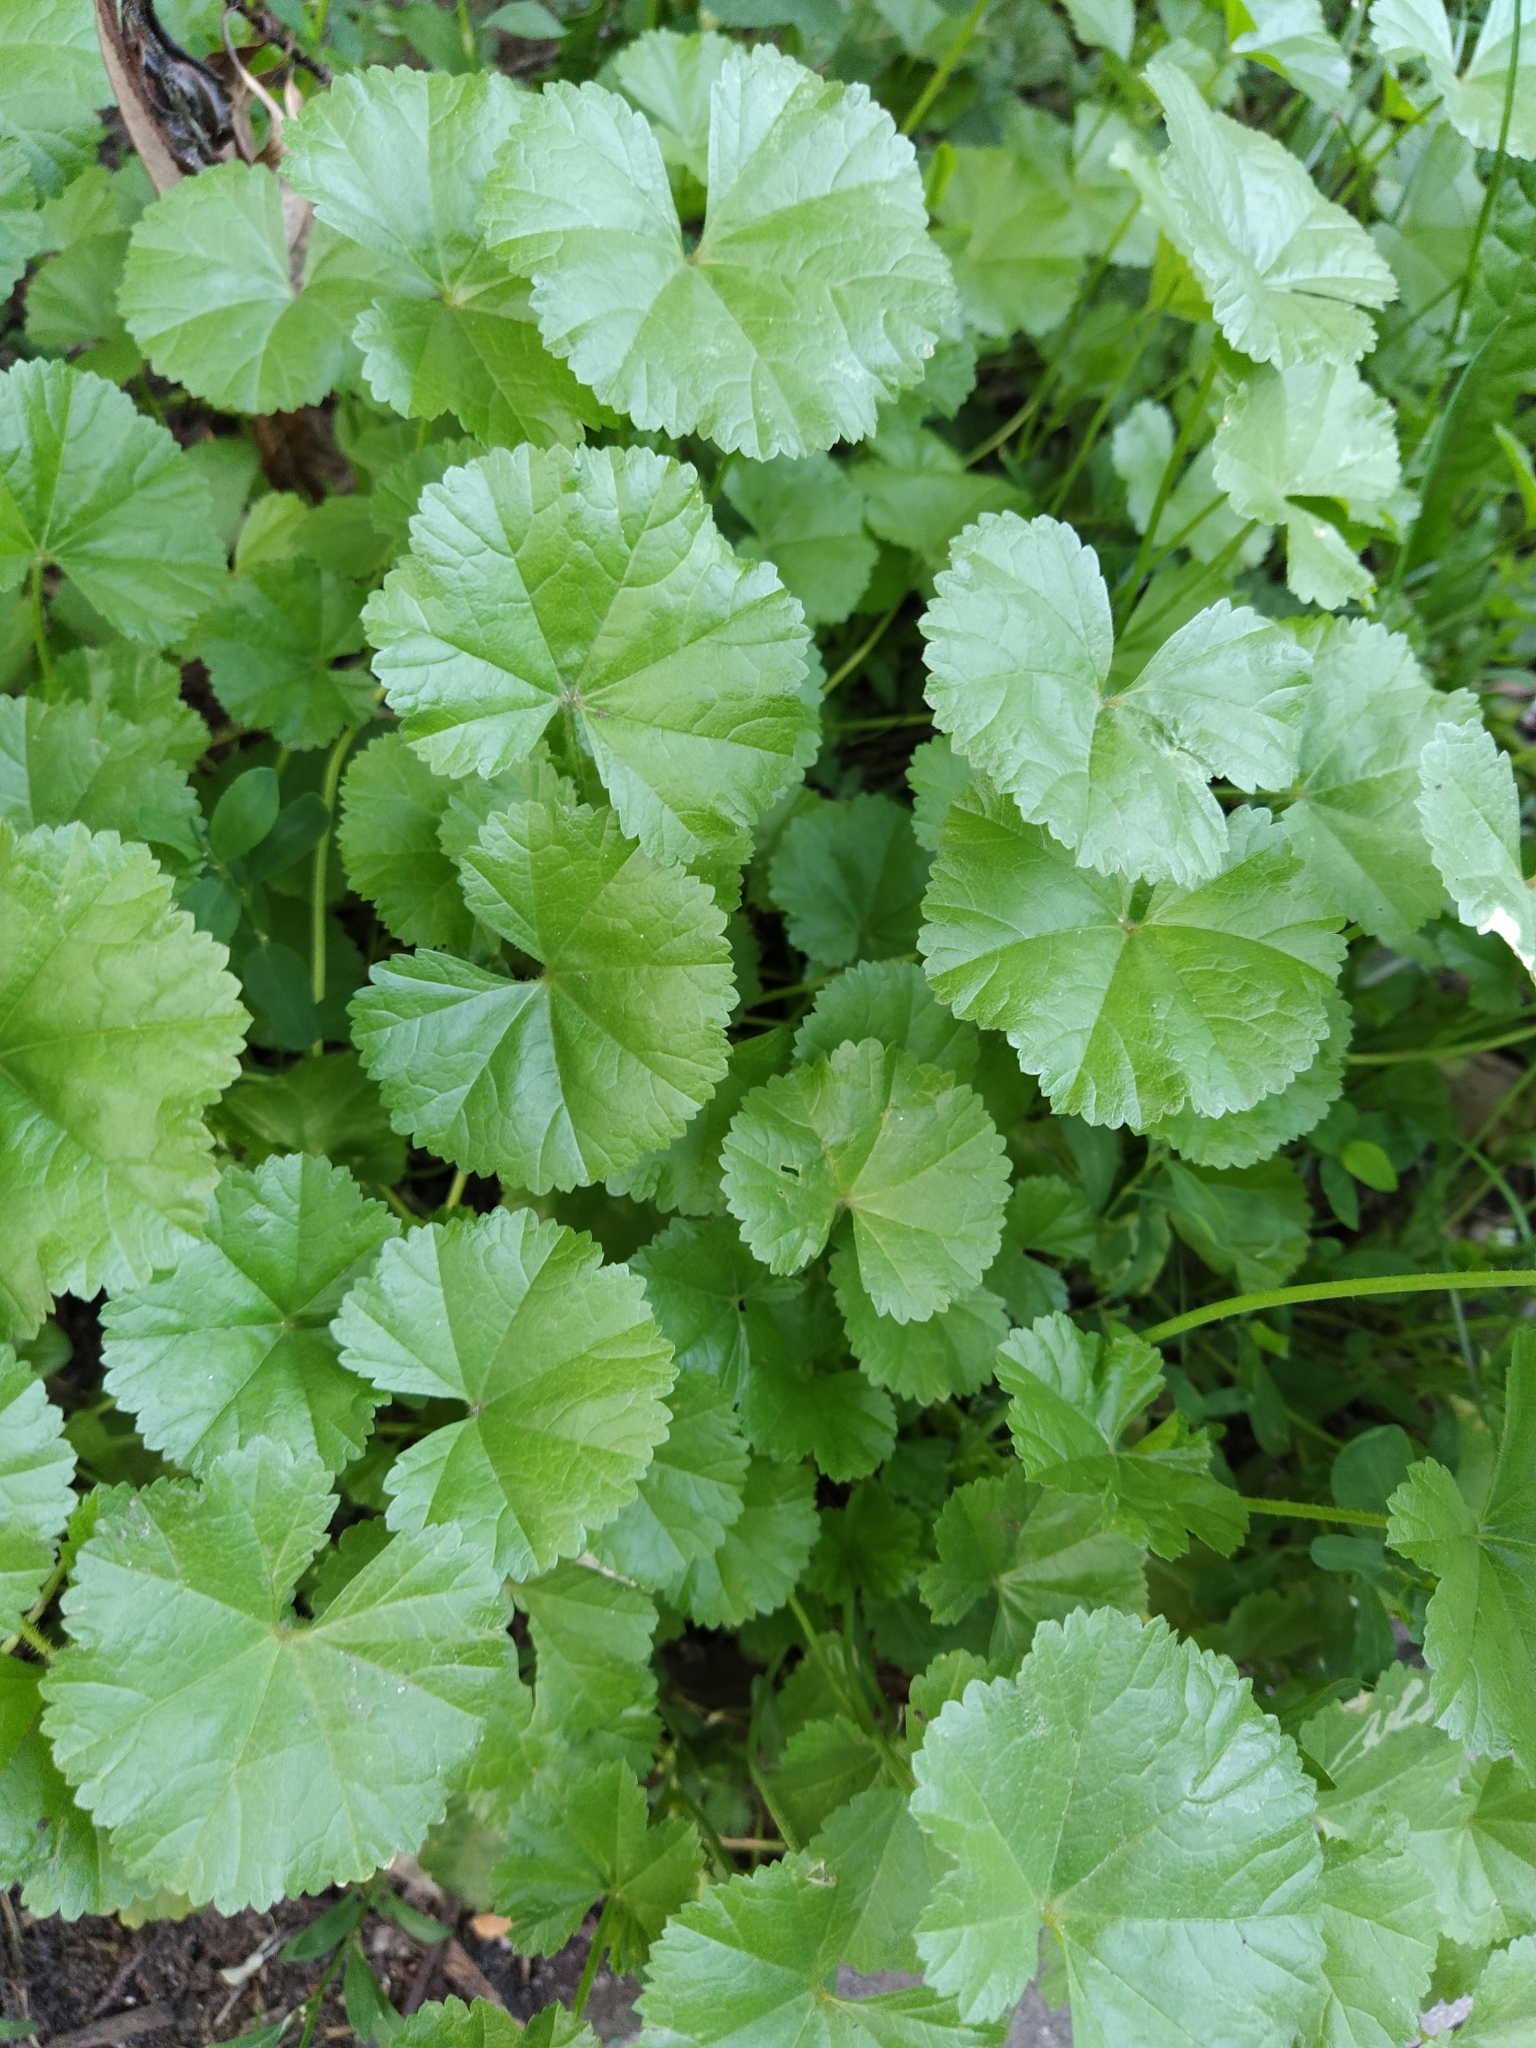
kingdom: Plantae
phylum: Tracheophyta
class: Magnoliopsida
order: Malvales
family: Malvaceae
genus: Malva
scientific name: Malva pusilla
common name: Small mallow
